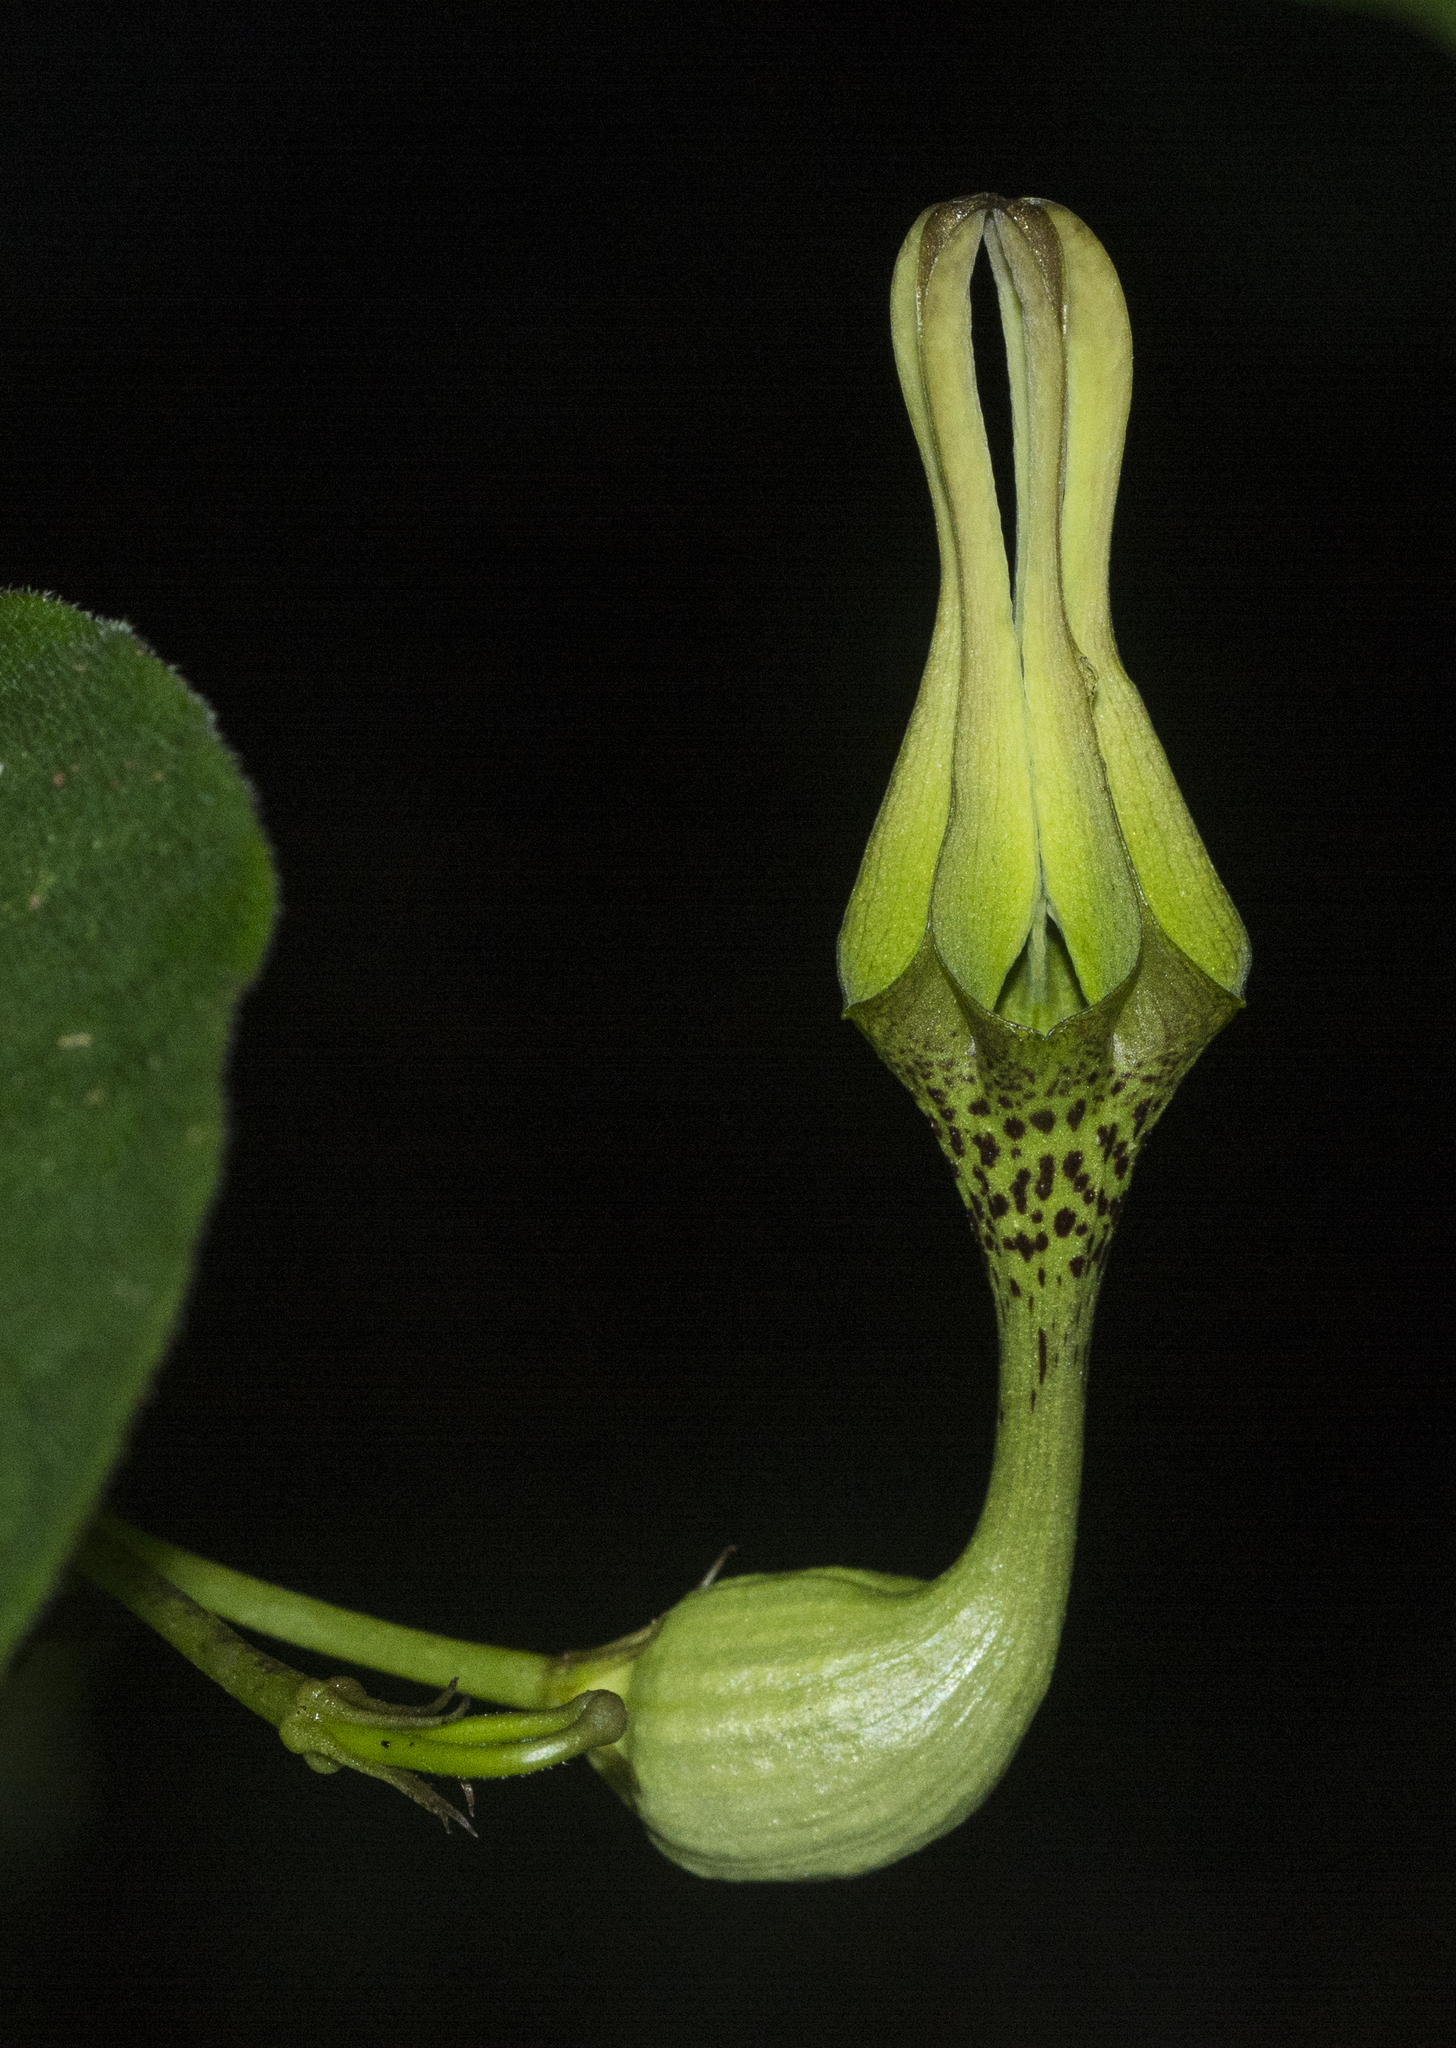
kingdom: Plantae
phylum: Tracheophyta
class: Magnoliopsida
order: Gentianales
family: Apocynaceae
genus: Ceropegia
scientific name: Ceropegia decaisneana
